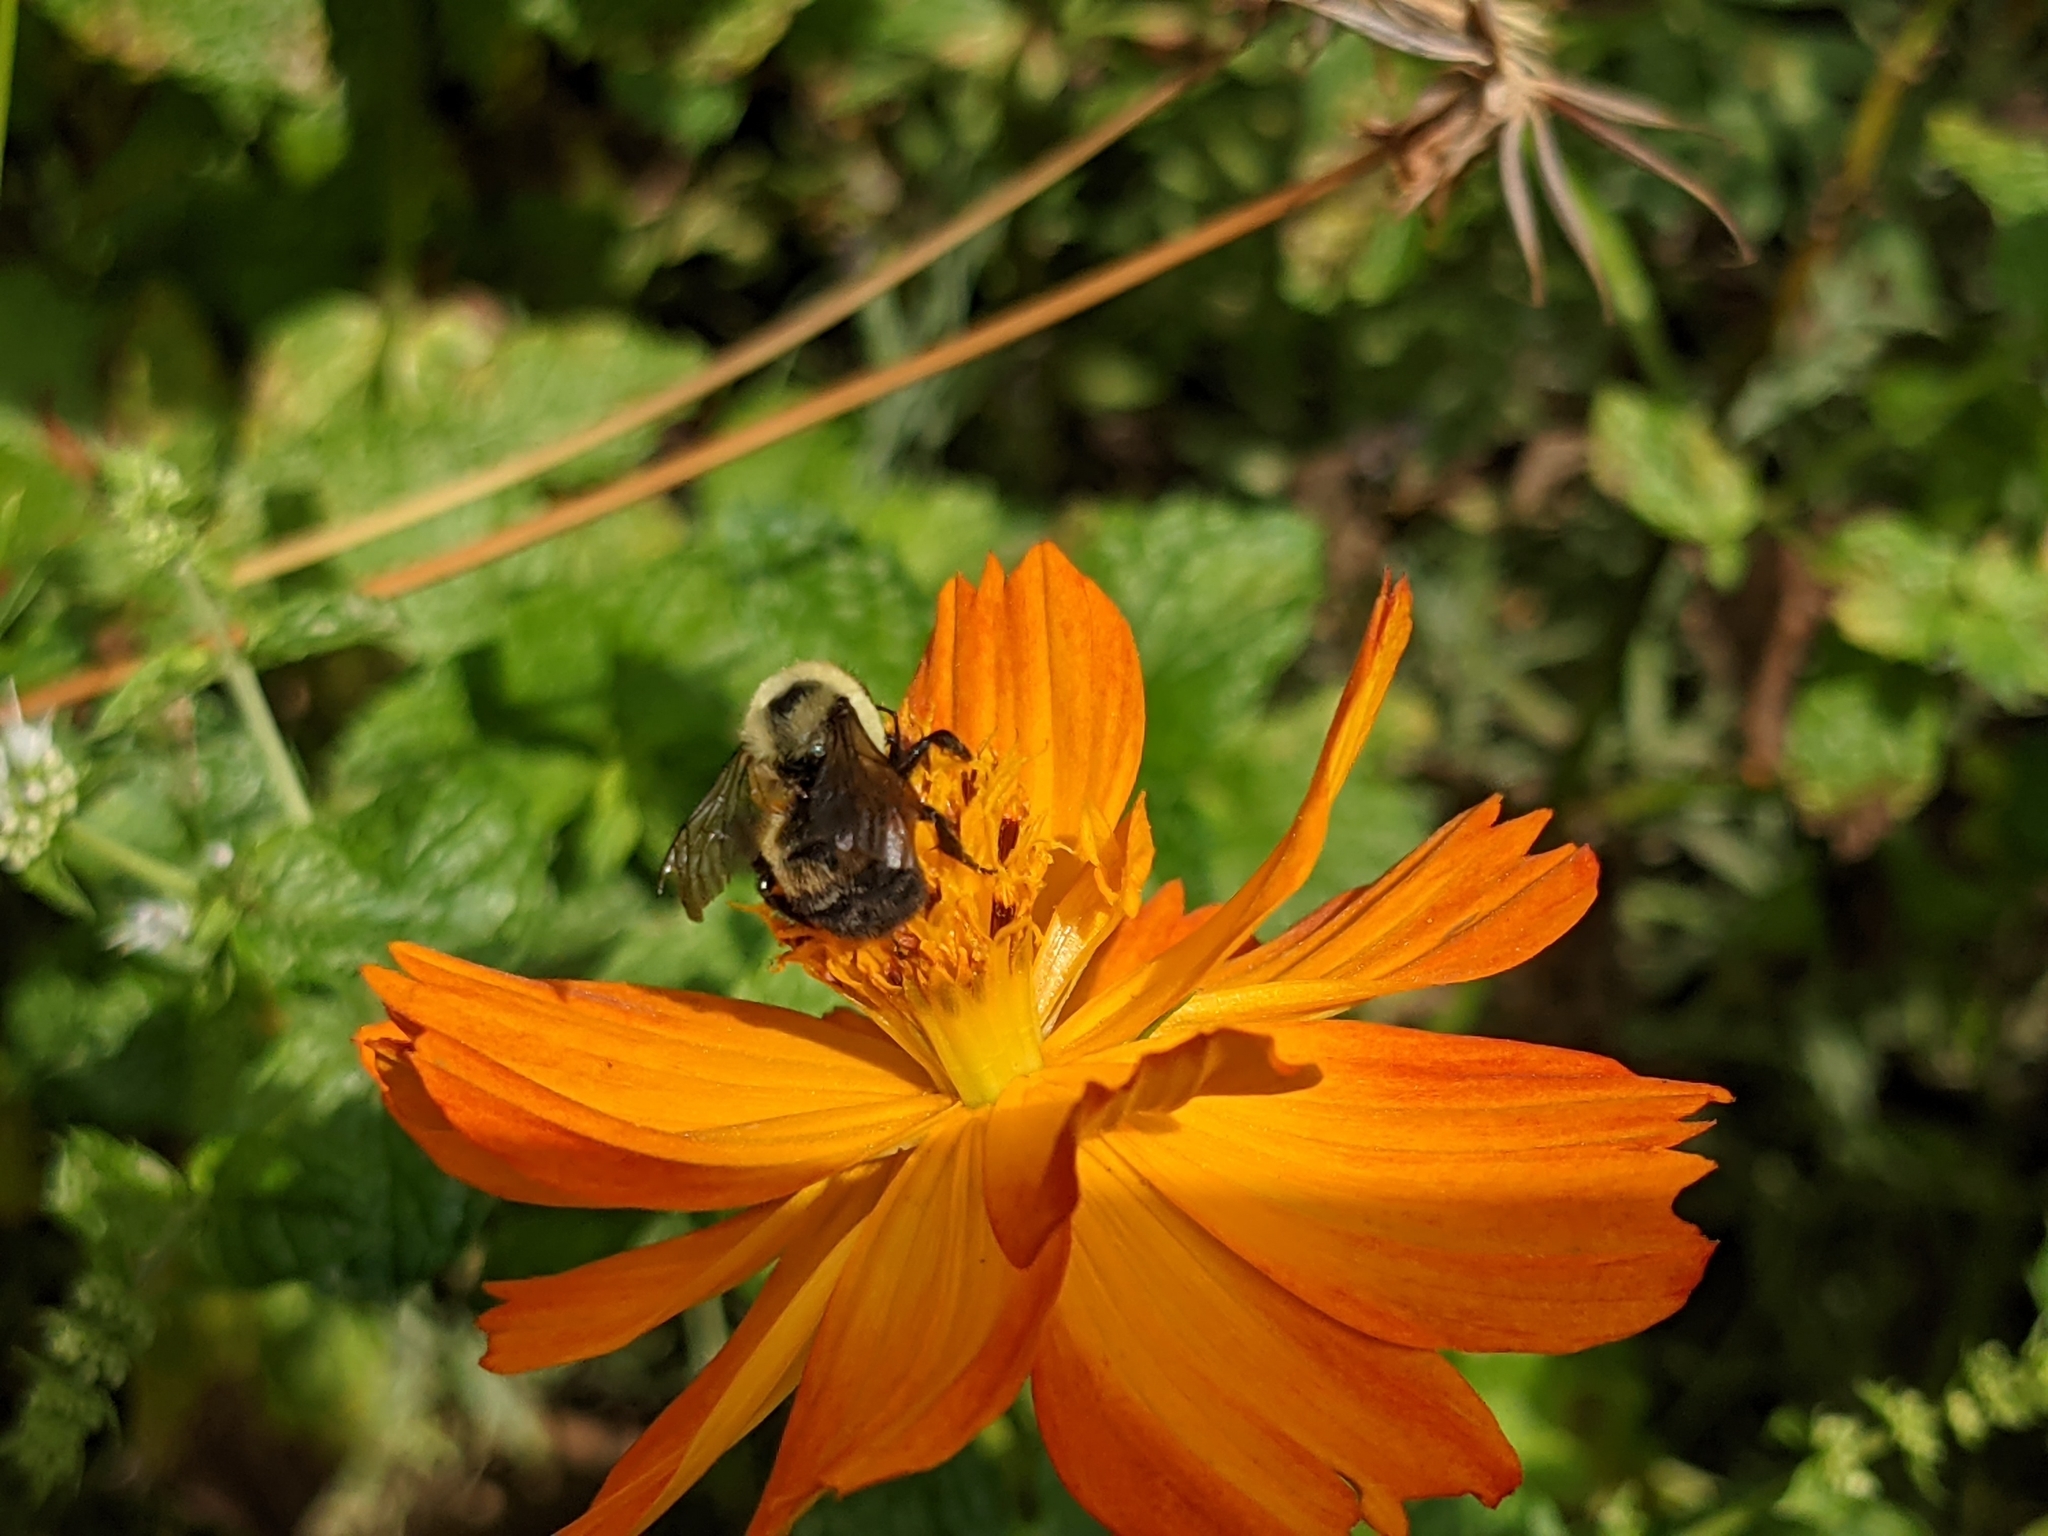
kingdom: Animalia
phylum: Arthropoda
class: Insecta
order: Hymenoptera
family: Apidae
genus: Bombus
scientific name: Bombus griseocollis
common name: Brown-belted bumble bee
